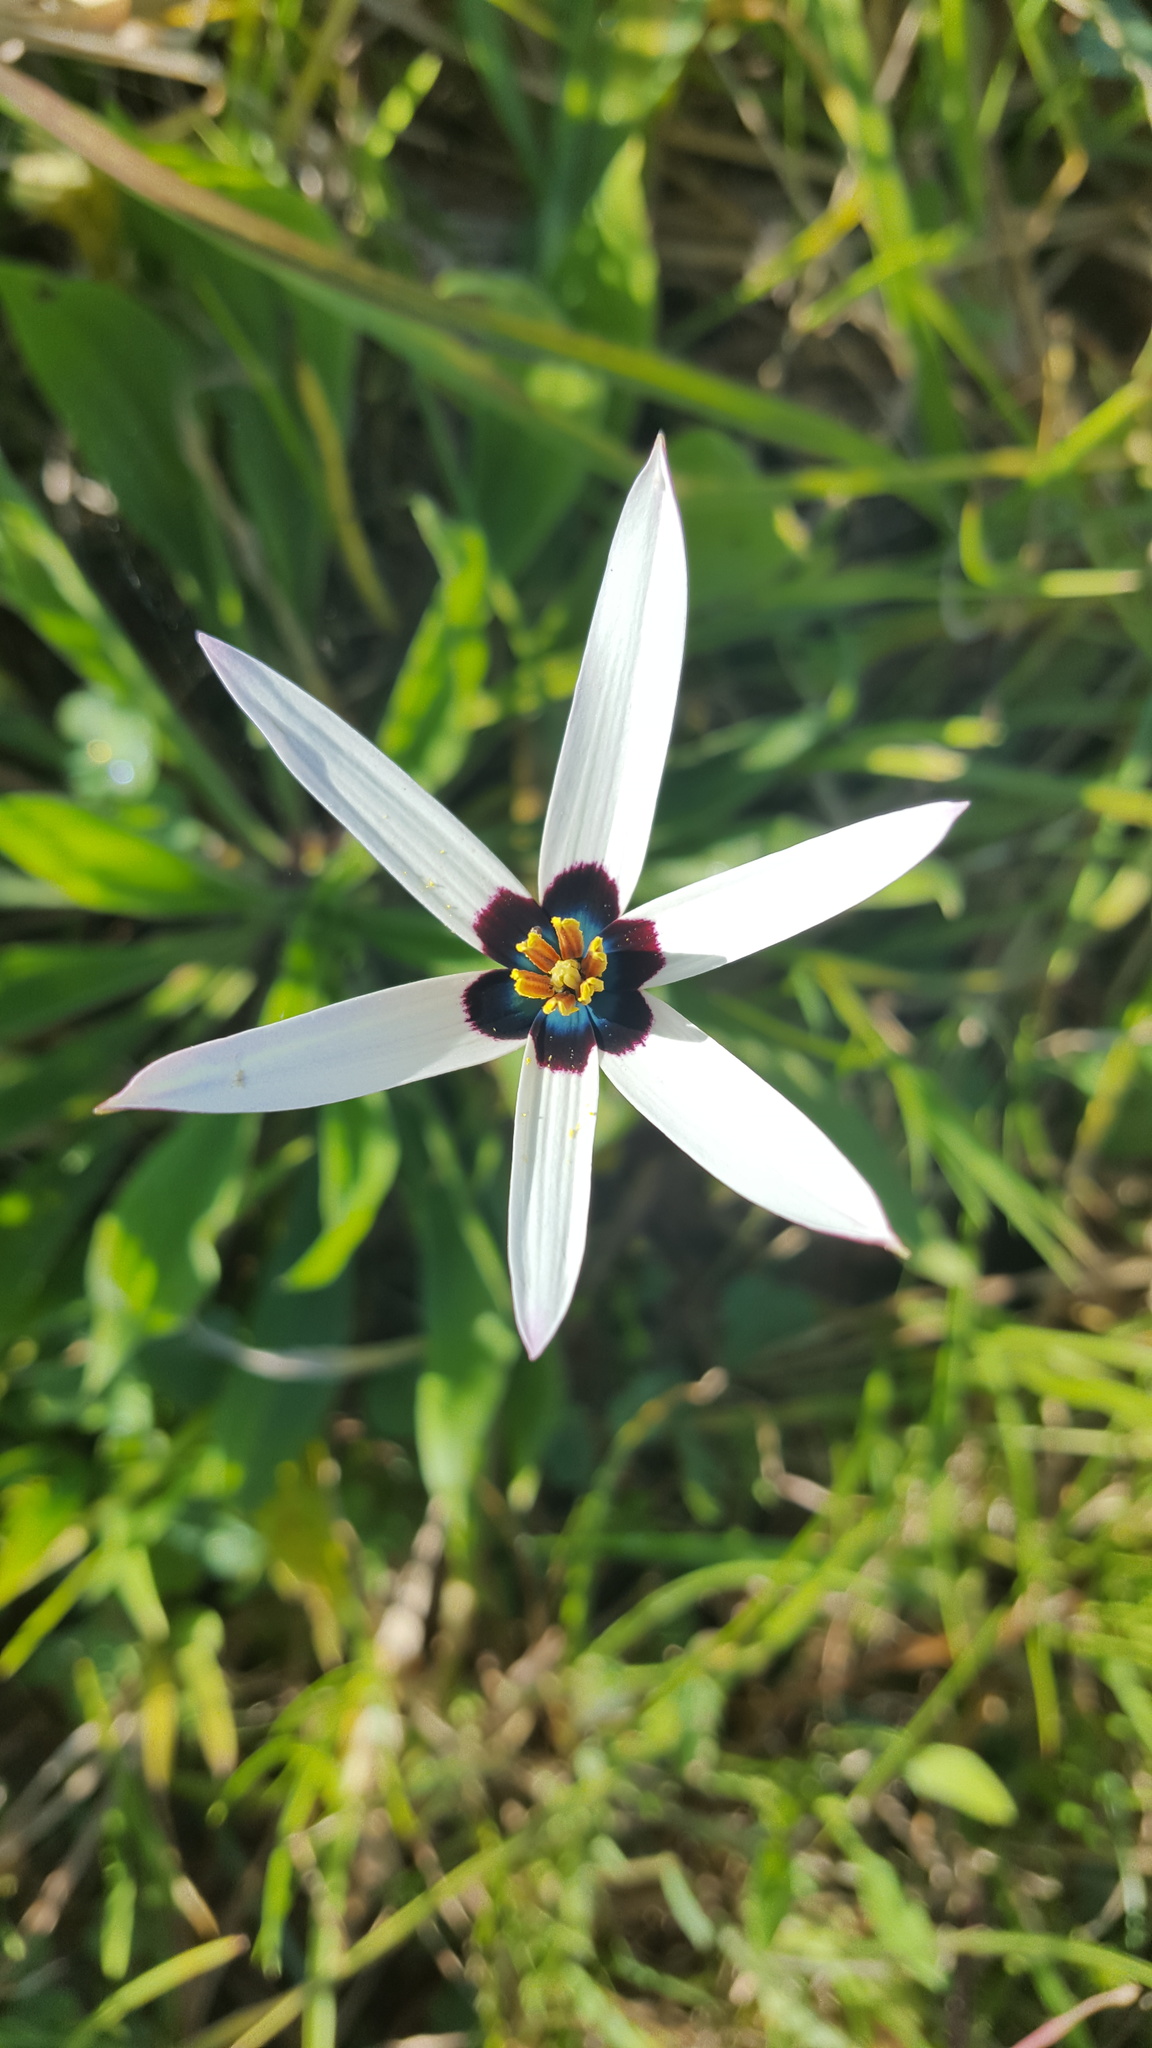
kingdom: Plantae
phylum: Tracheophyta
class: Liliopsida
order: Asparagales
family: Hypoxidaceae
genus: Pauridia
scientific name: Pauridia capensis
